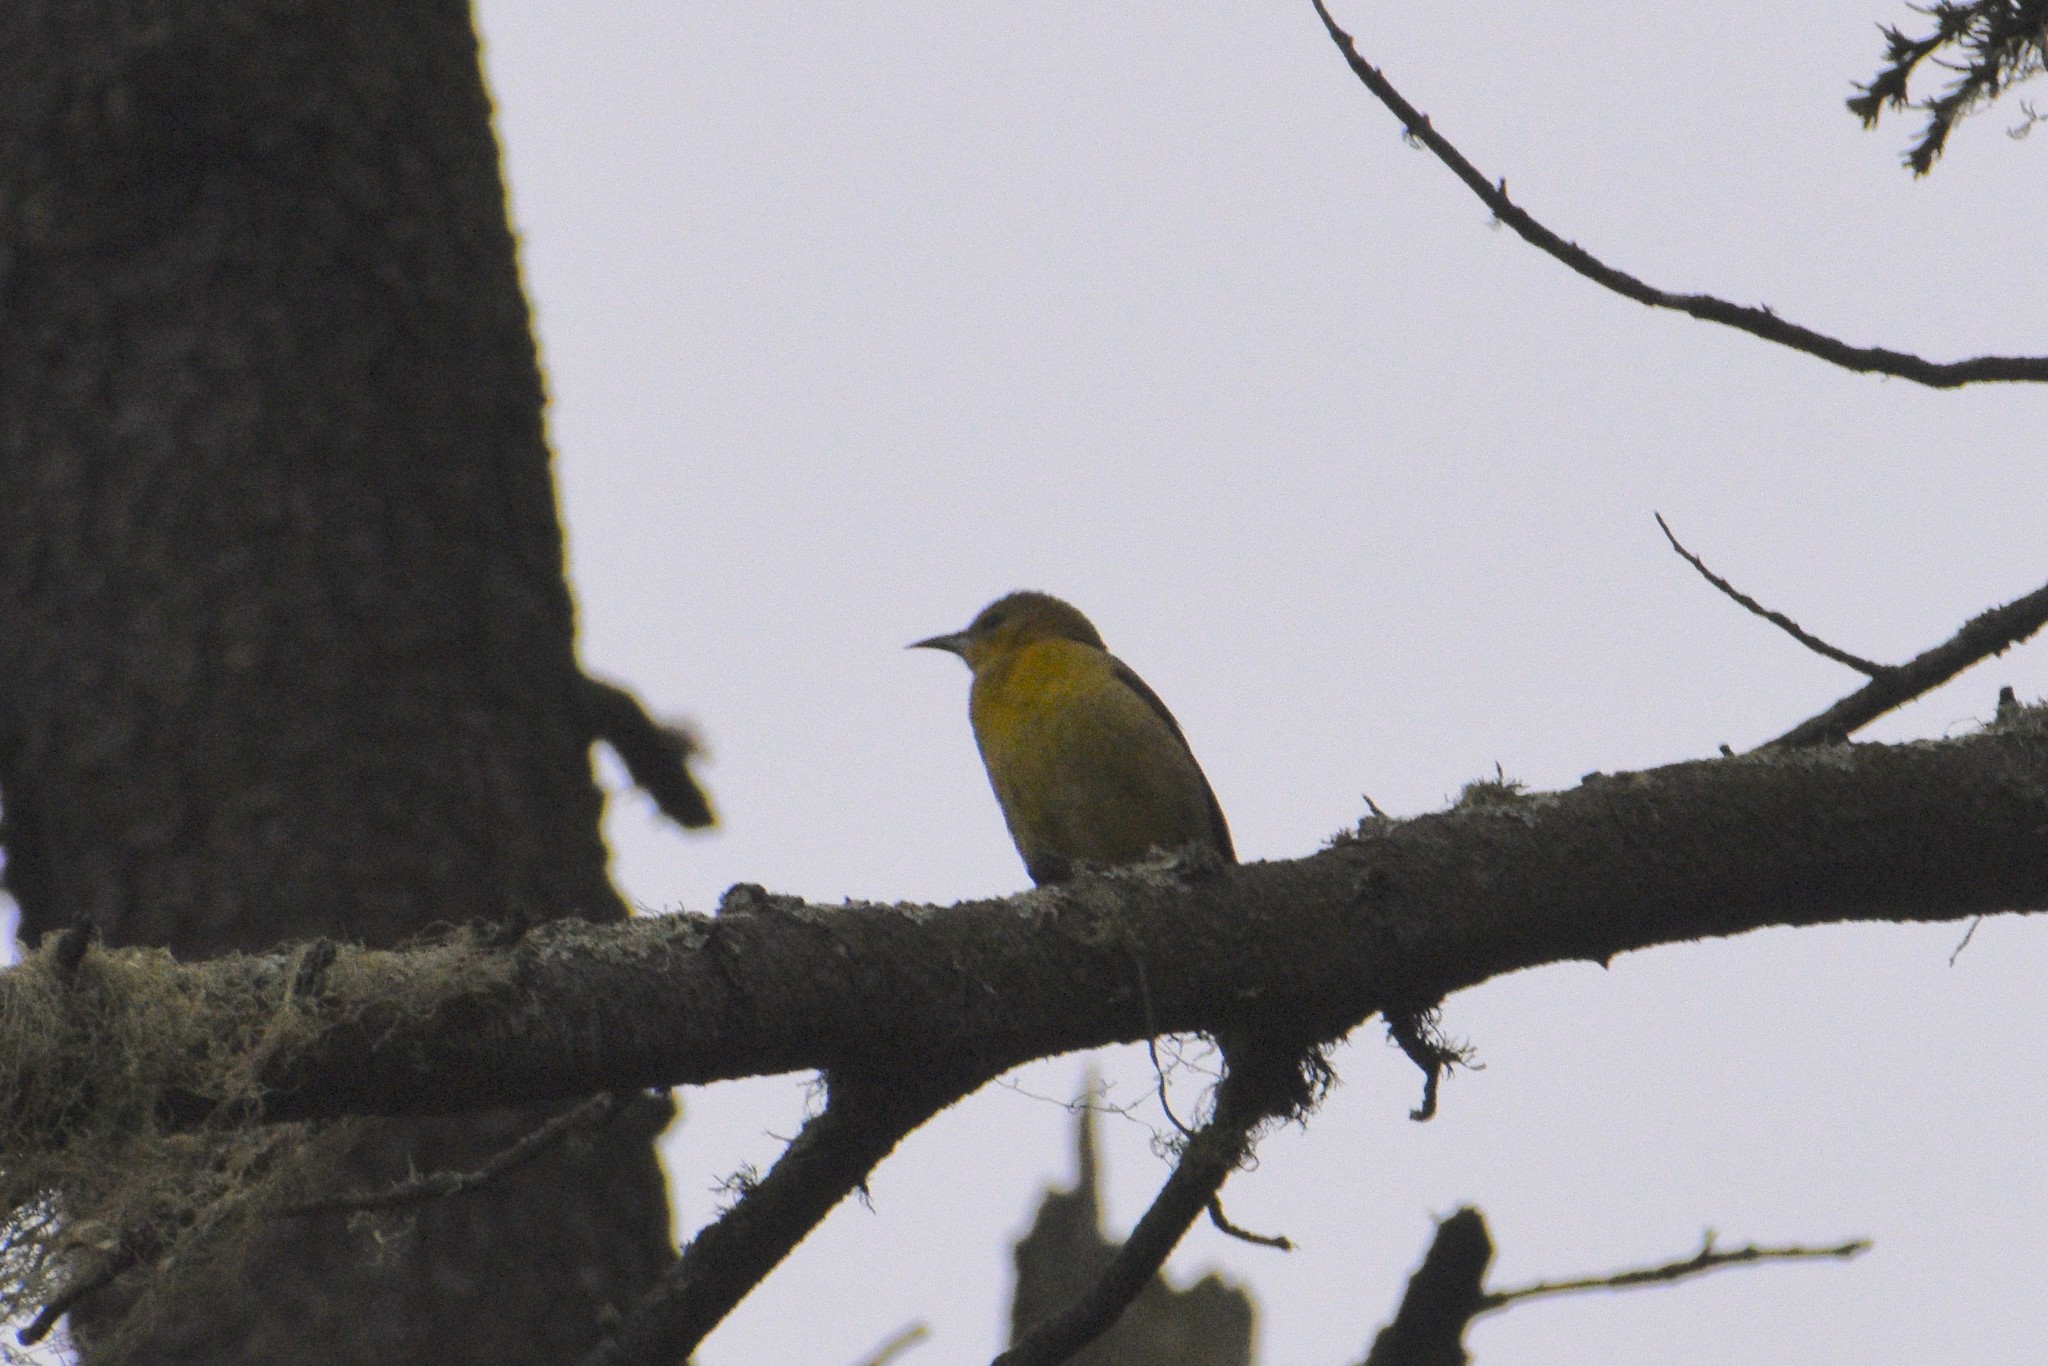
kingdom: Animalia
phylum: Chordata
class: Aves
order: Passeriformes
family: Icteridae
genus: Icterus
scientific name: Icterus bullockii
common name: Bullock's oriole
